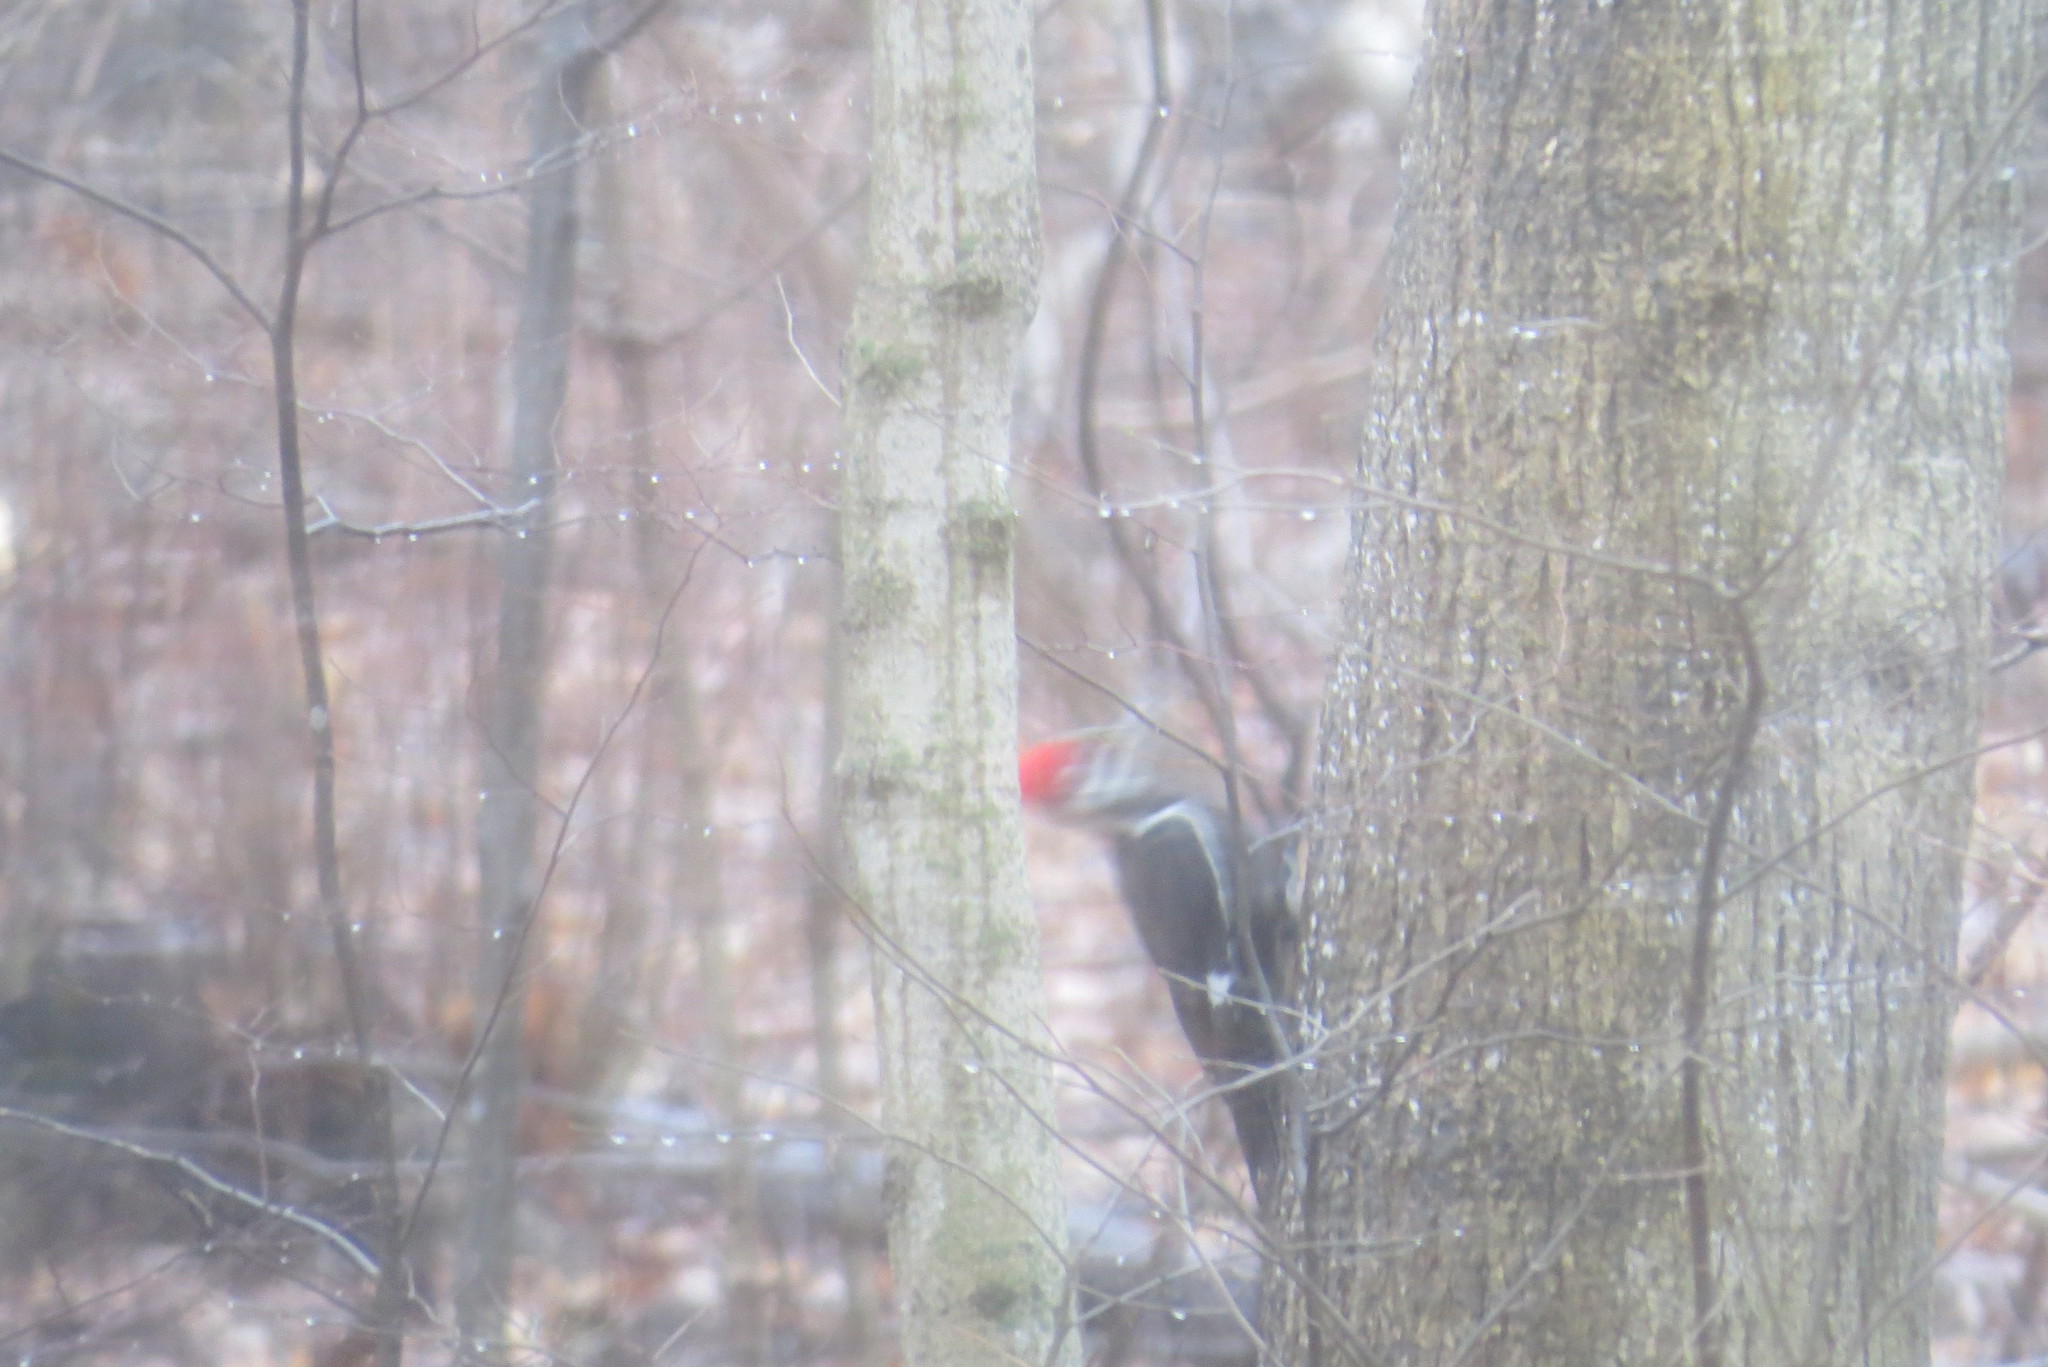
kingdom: Animalia
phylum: Chordata
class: Aves
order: Piciformes
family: Picidae
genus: Dryocopus
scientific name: Dryocopus pileatus
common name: Pileated woodpecker
